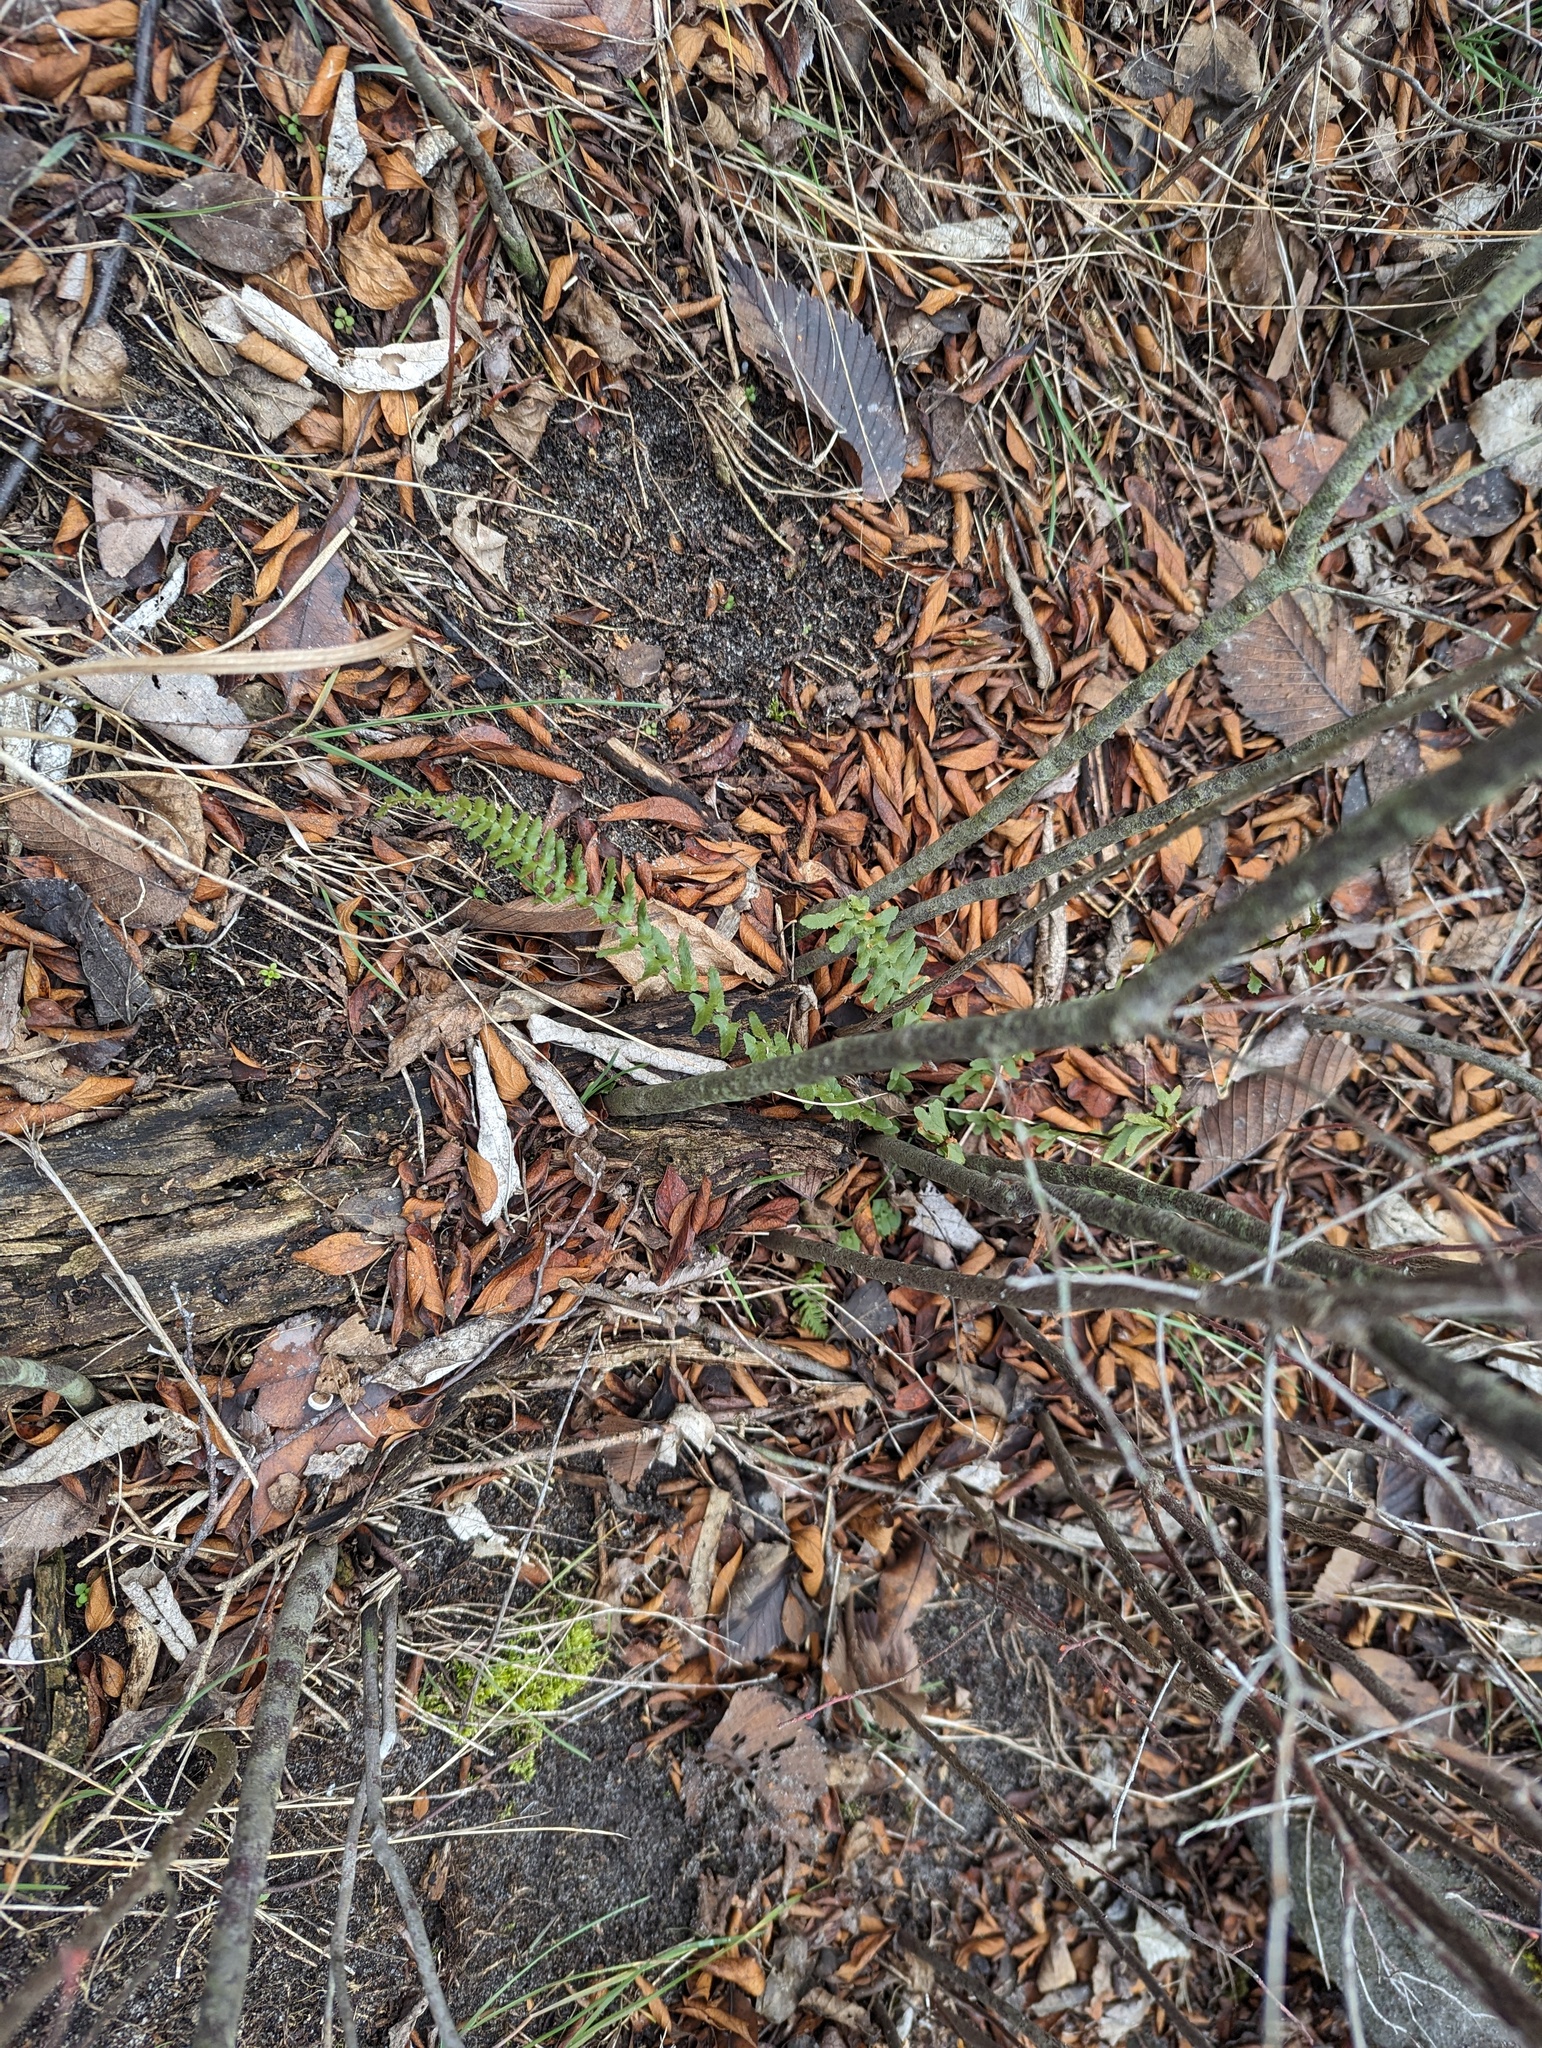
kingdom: Plantae
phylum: Tracheophyta
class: Polypodiopsida
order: Polypodiales
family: Aspleniaceae
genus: Asplenium
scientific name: Asplenium platyneuron
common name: Ebony spleenwort
